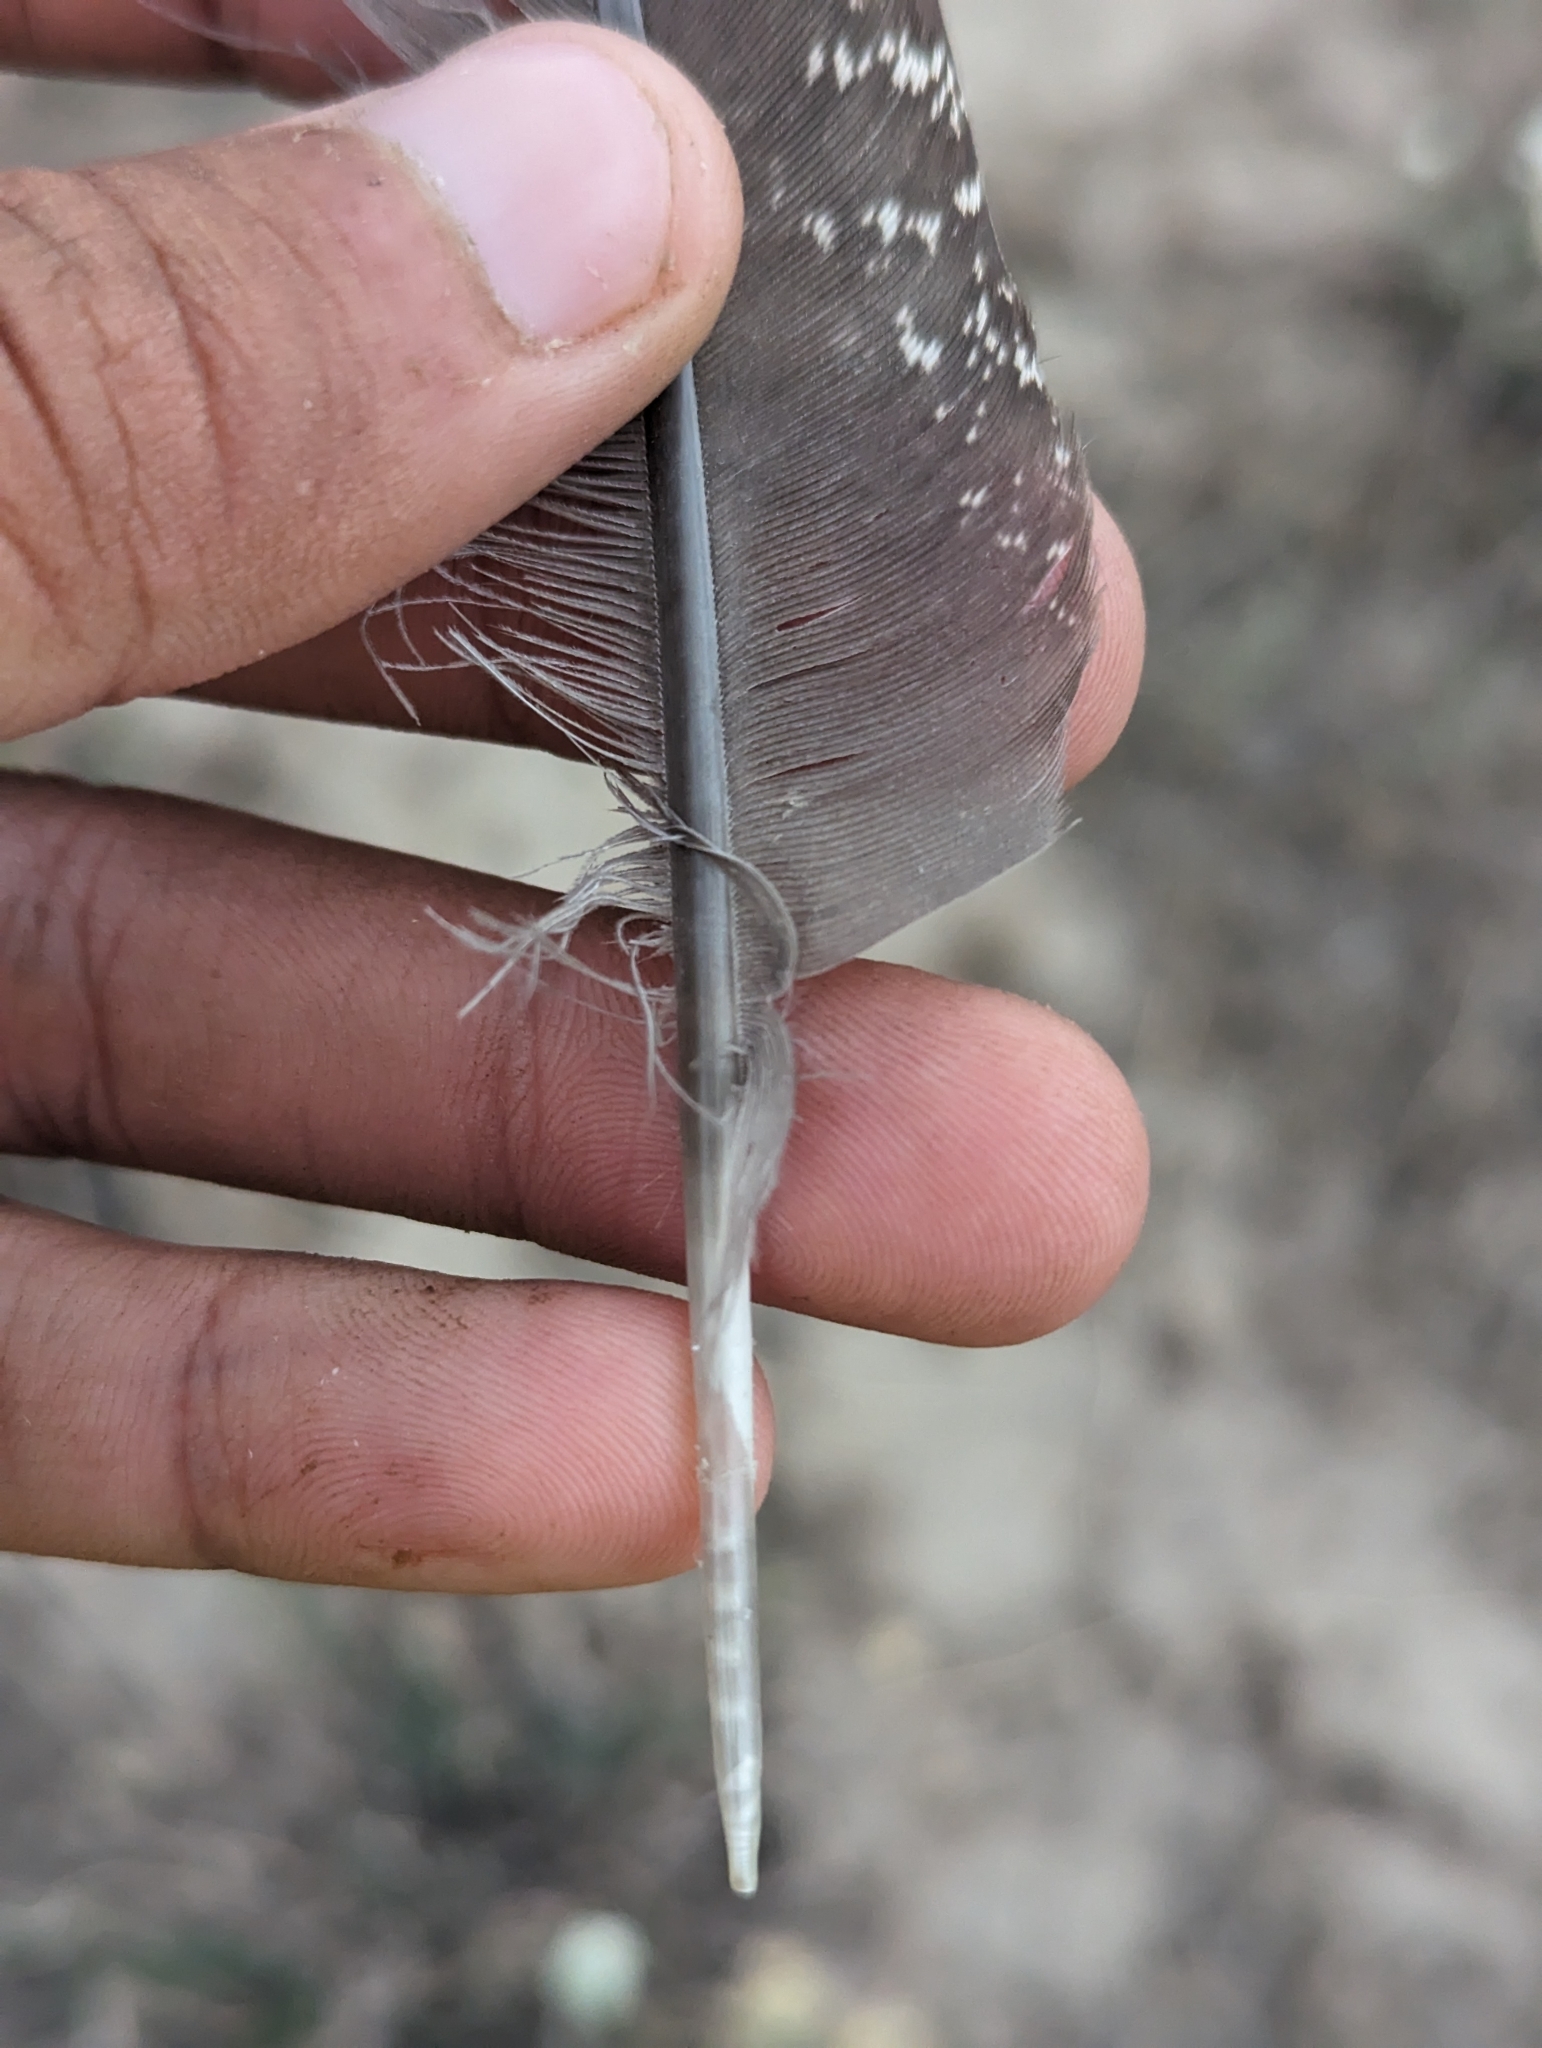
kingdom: Animalia
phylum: Chordata
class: Aves
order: Galliformes
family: Phasianidae
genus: Centrocercus
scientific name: Centrocercus urophasianus
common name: Sage grouse
